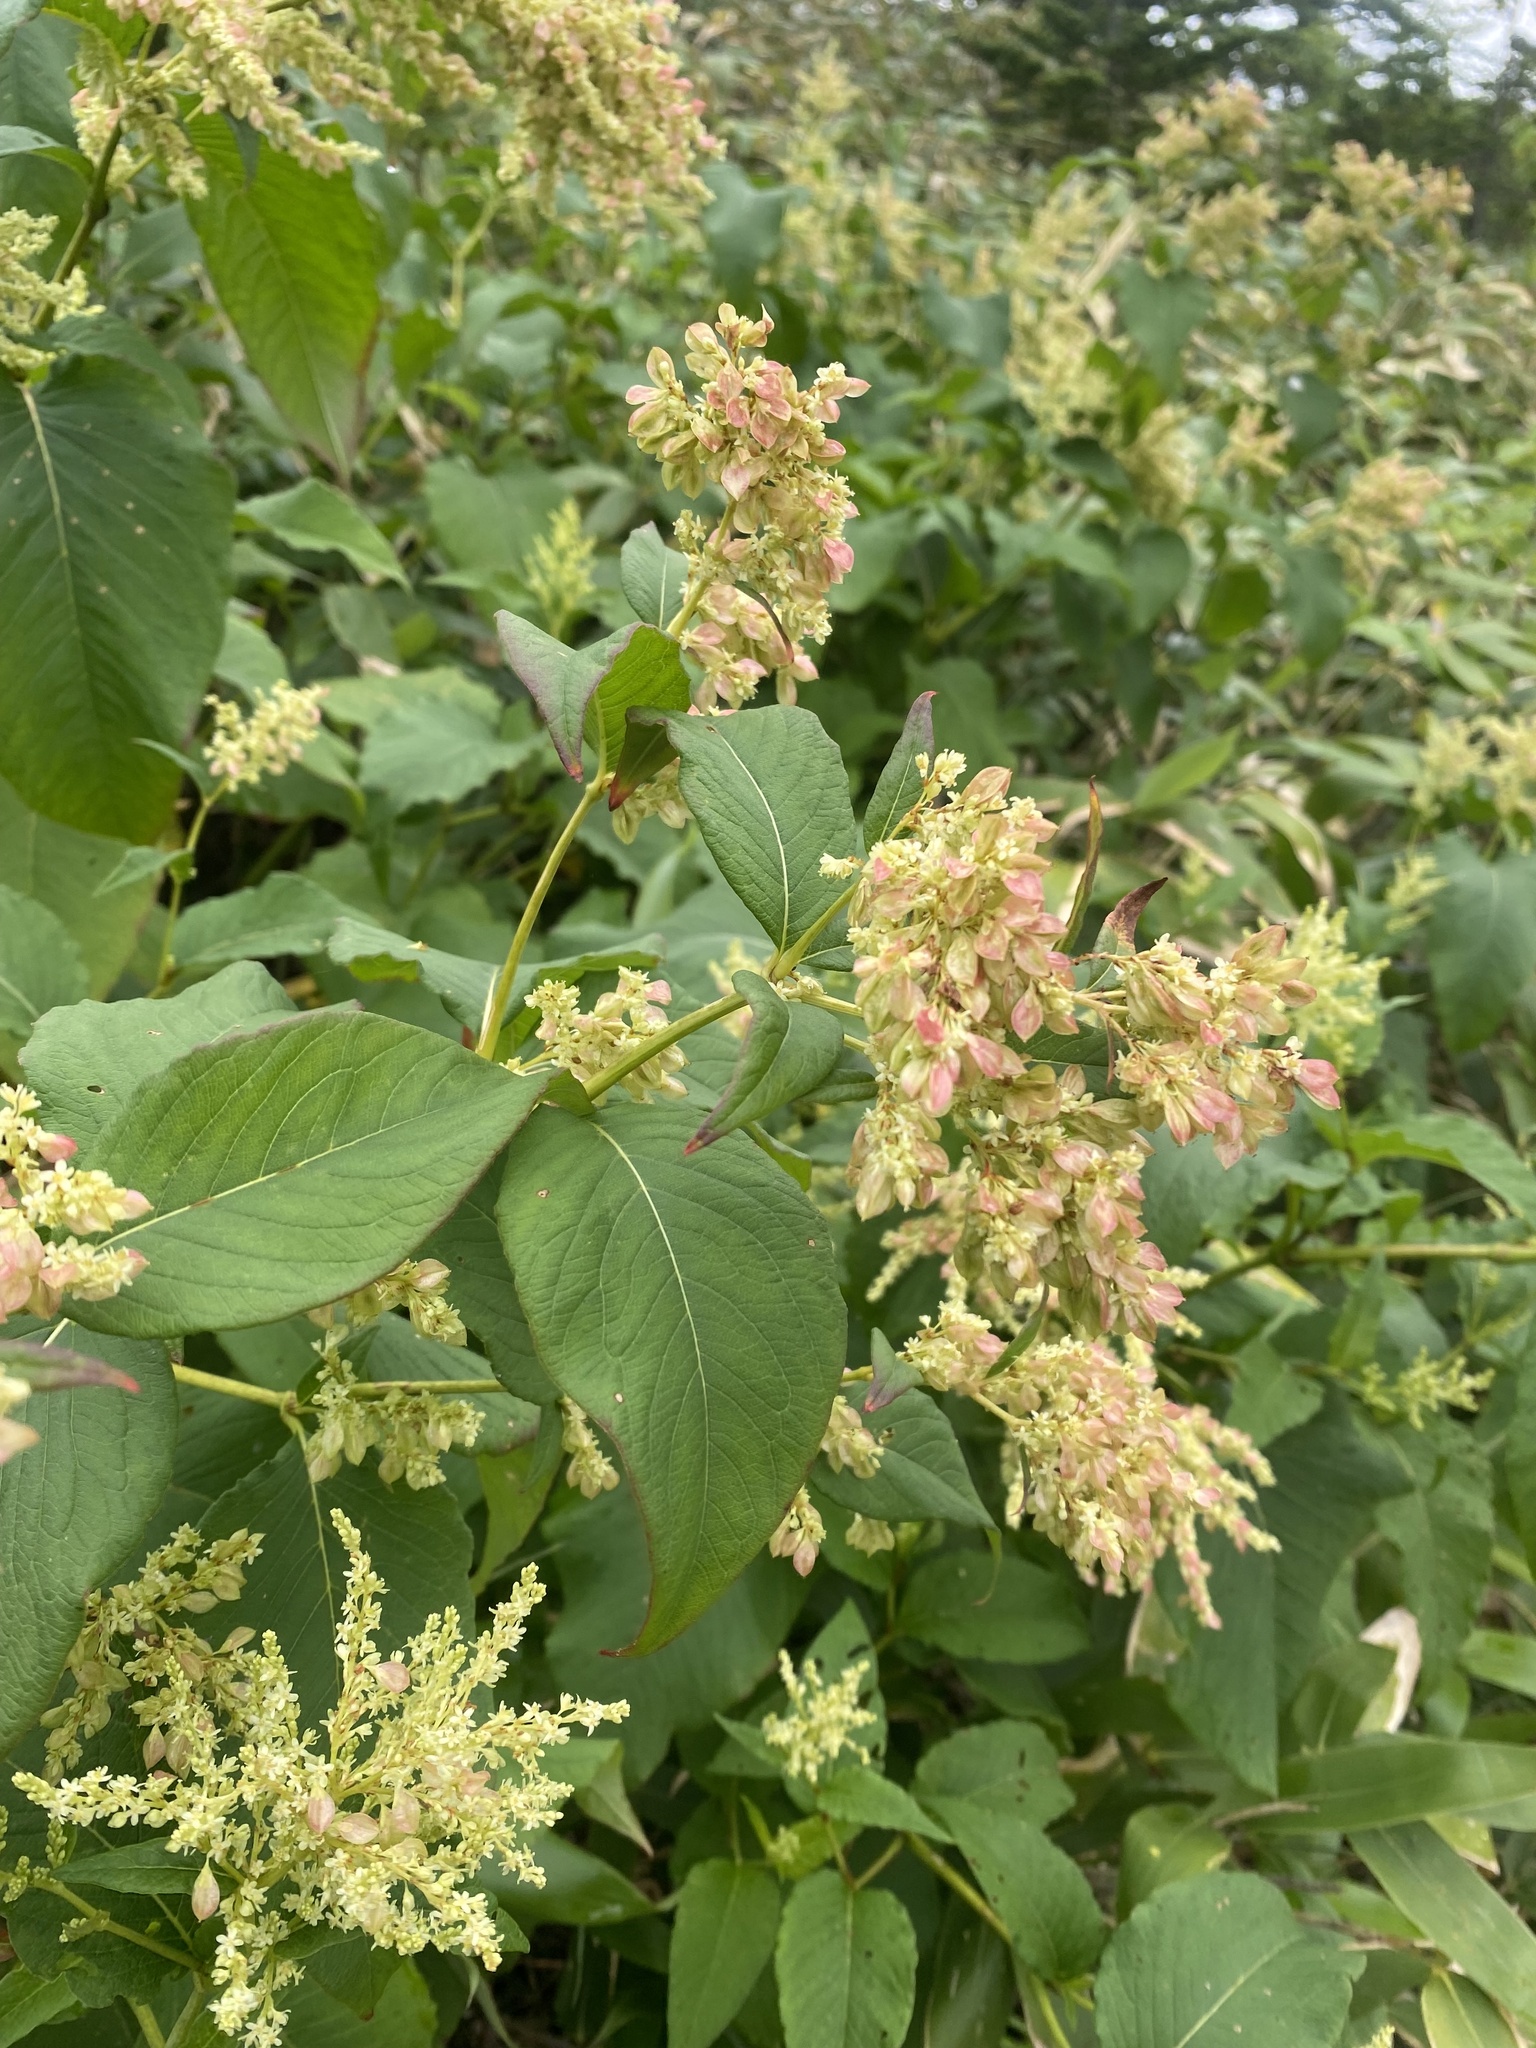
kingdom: Plantae
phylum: Tracheophyta
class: Magnoliopsida
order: Caryophyllales
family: Polygonaceae
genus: Koenigia
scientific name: Koenigia weyrichii
